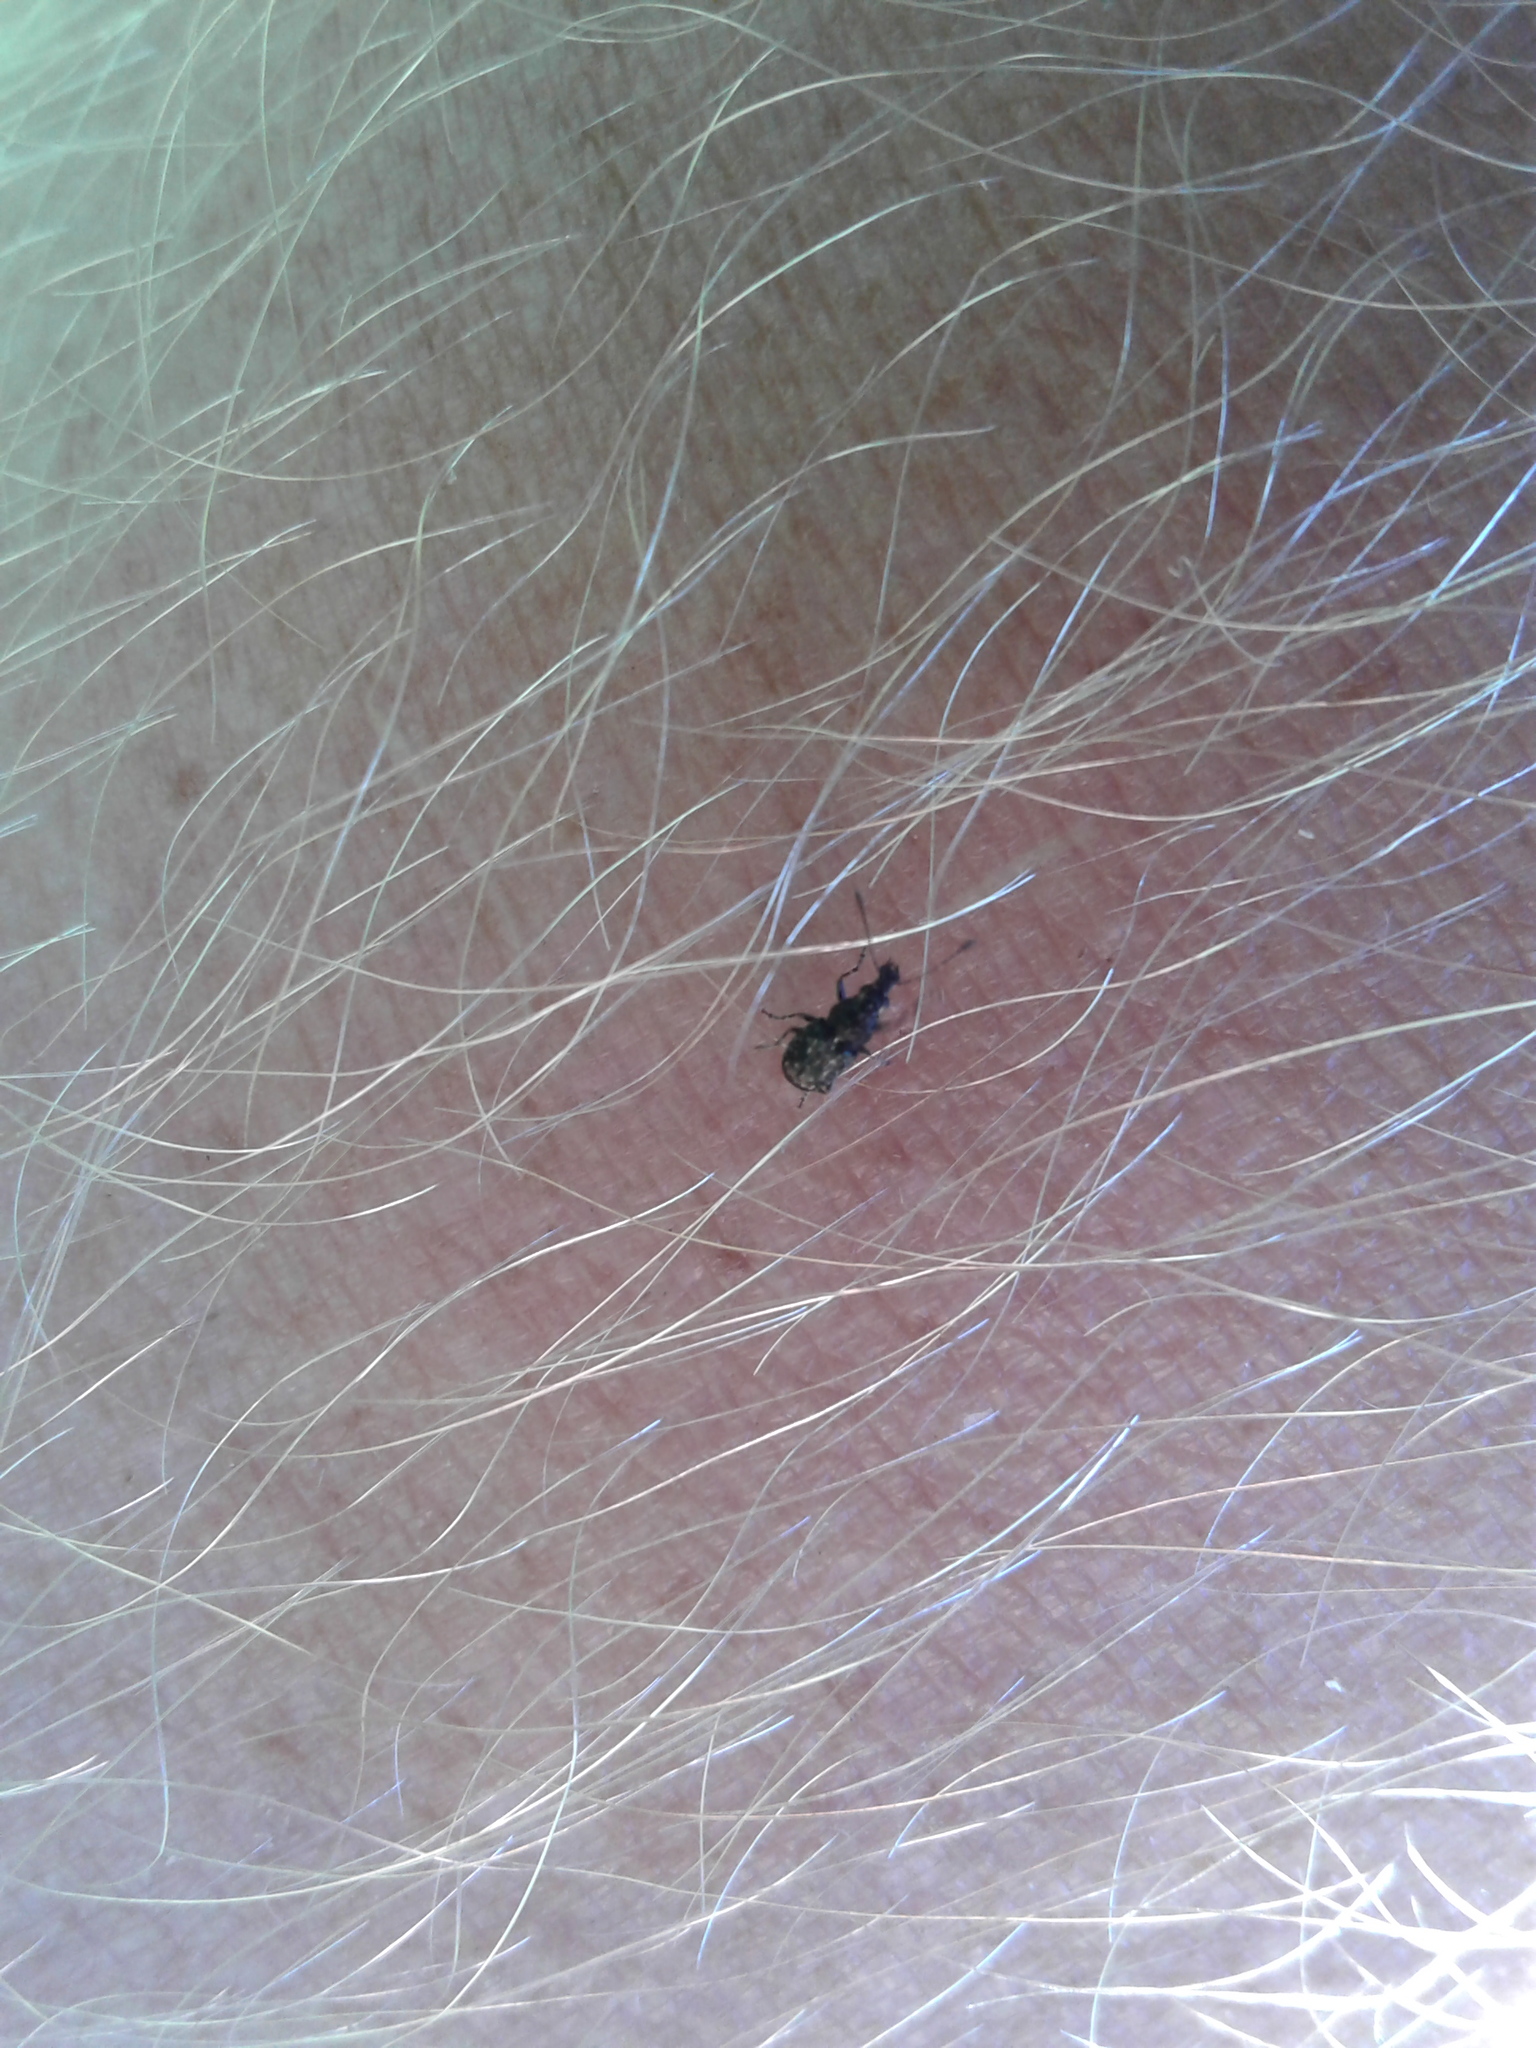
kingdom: Animalia
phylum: Arthropoda
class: Insecta
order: Coleoptera
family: Anthribidae
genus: Sharpius
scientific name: Sharpius
